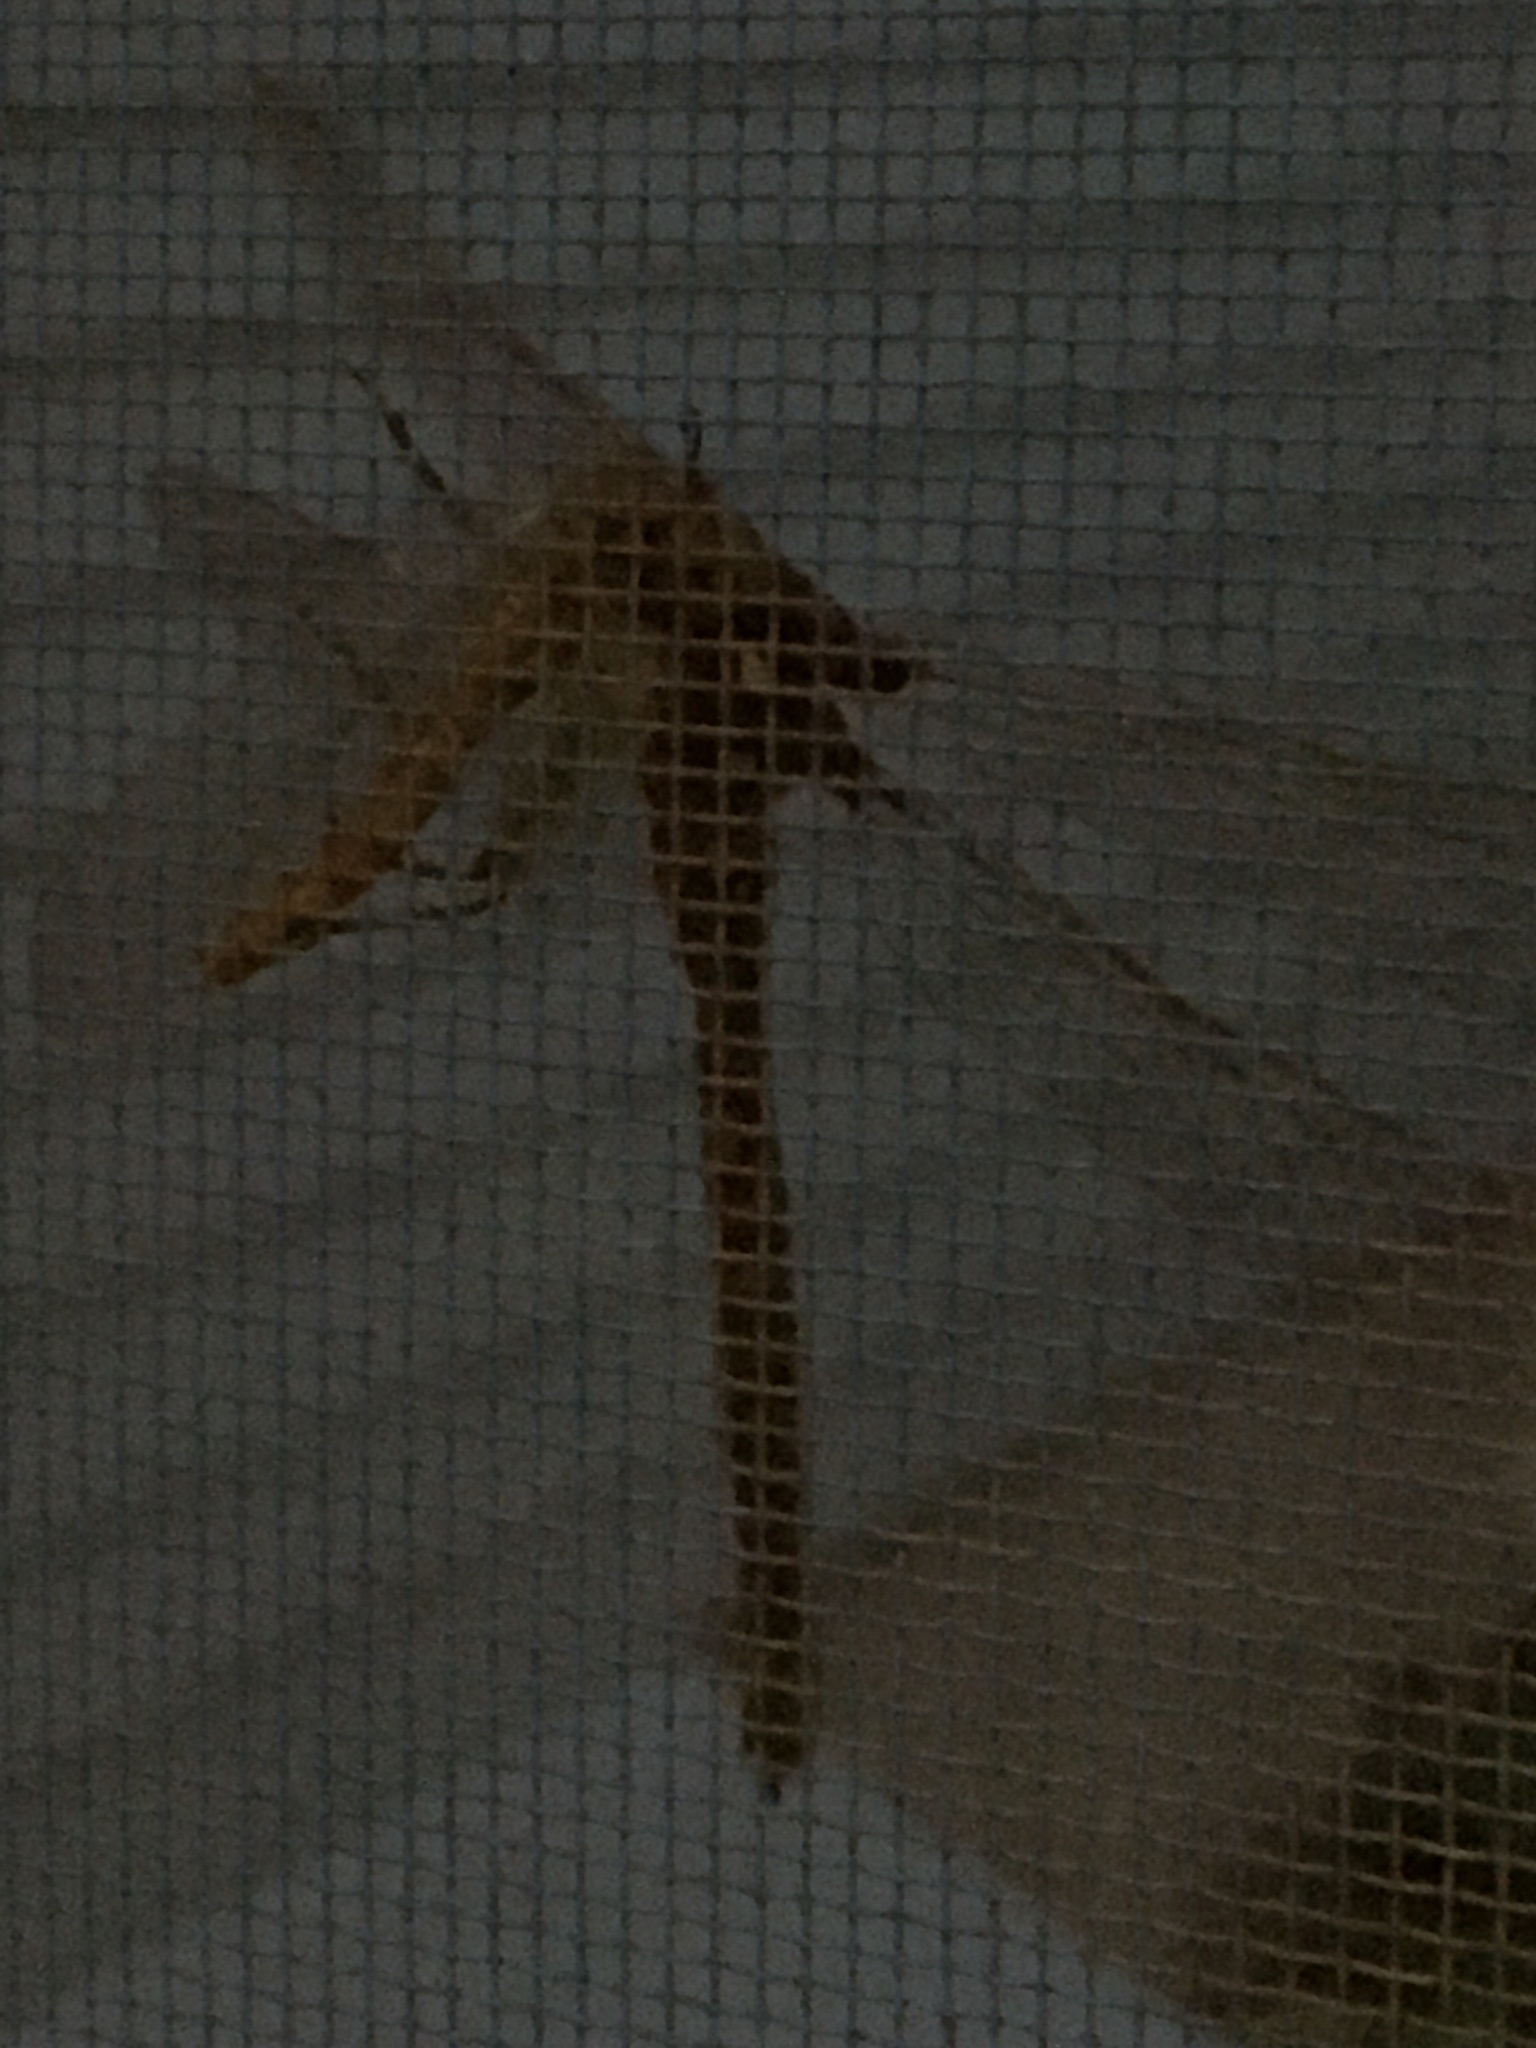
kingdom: Animalia
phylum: Arthropoda
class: Insecta
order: Odonata
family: Aeshnidae
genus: Boyeria
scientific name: Boyeria vinosa
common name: Fawn darner
